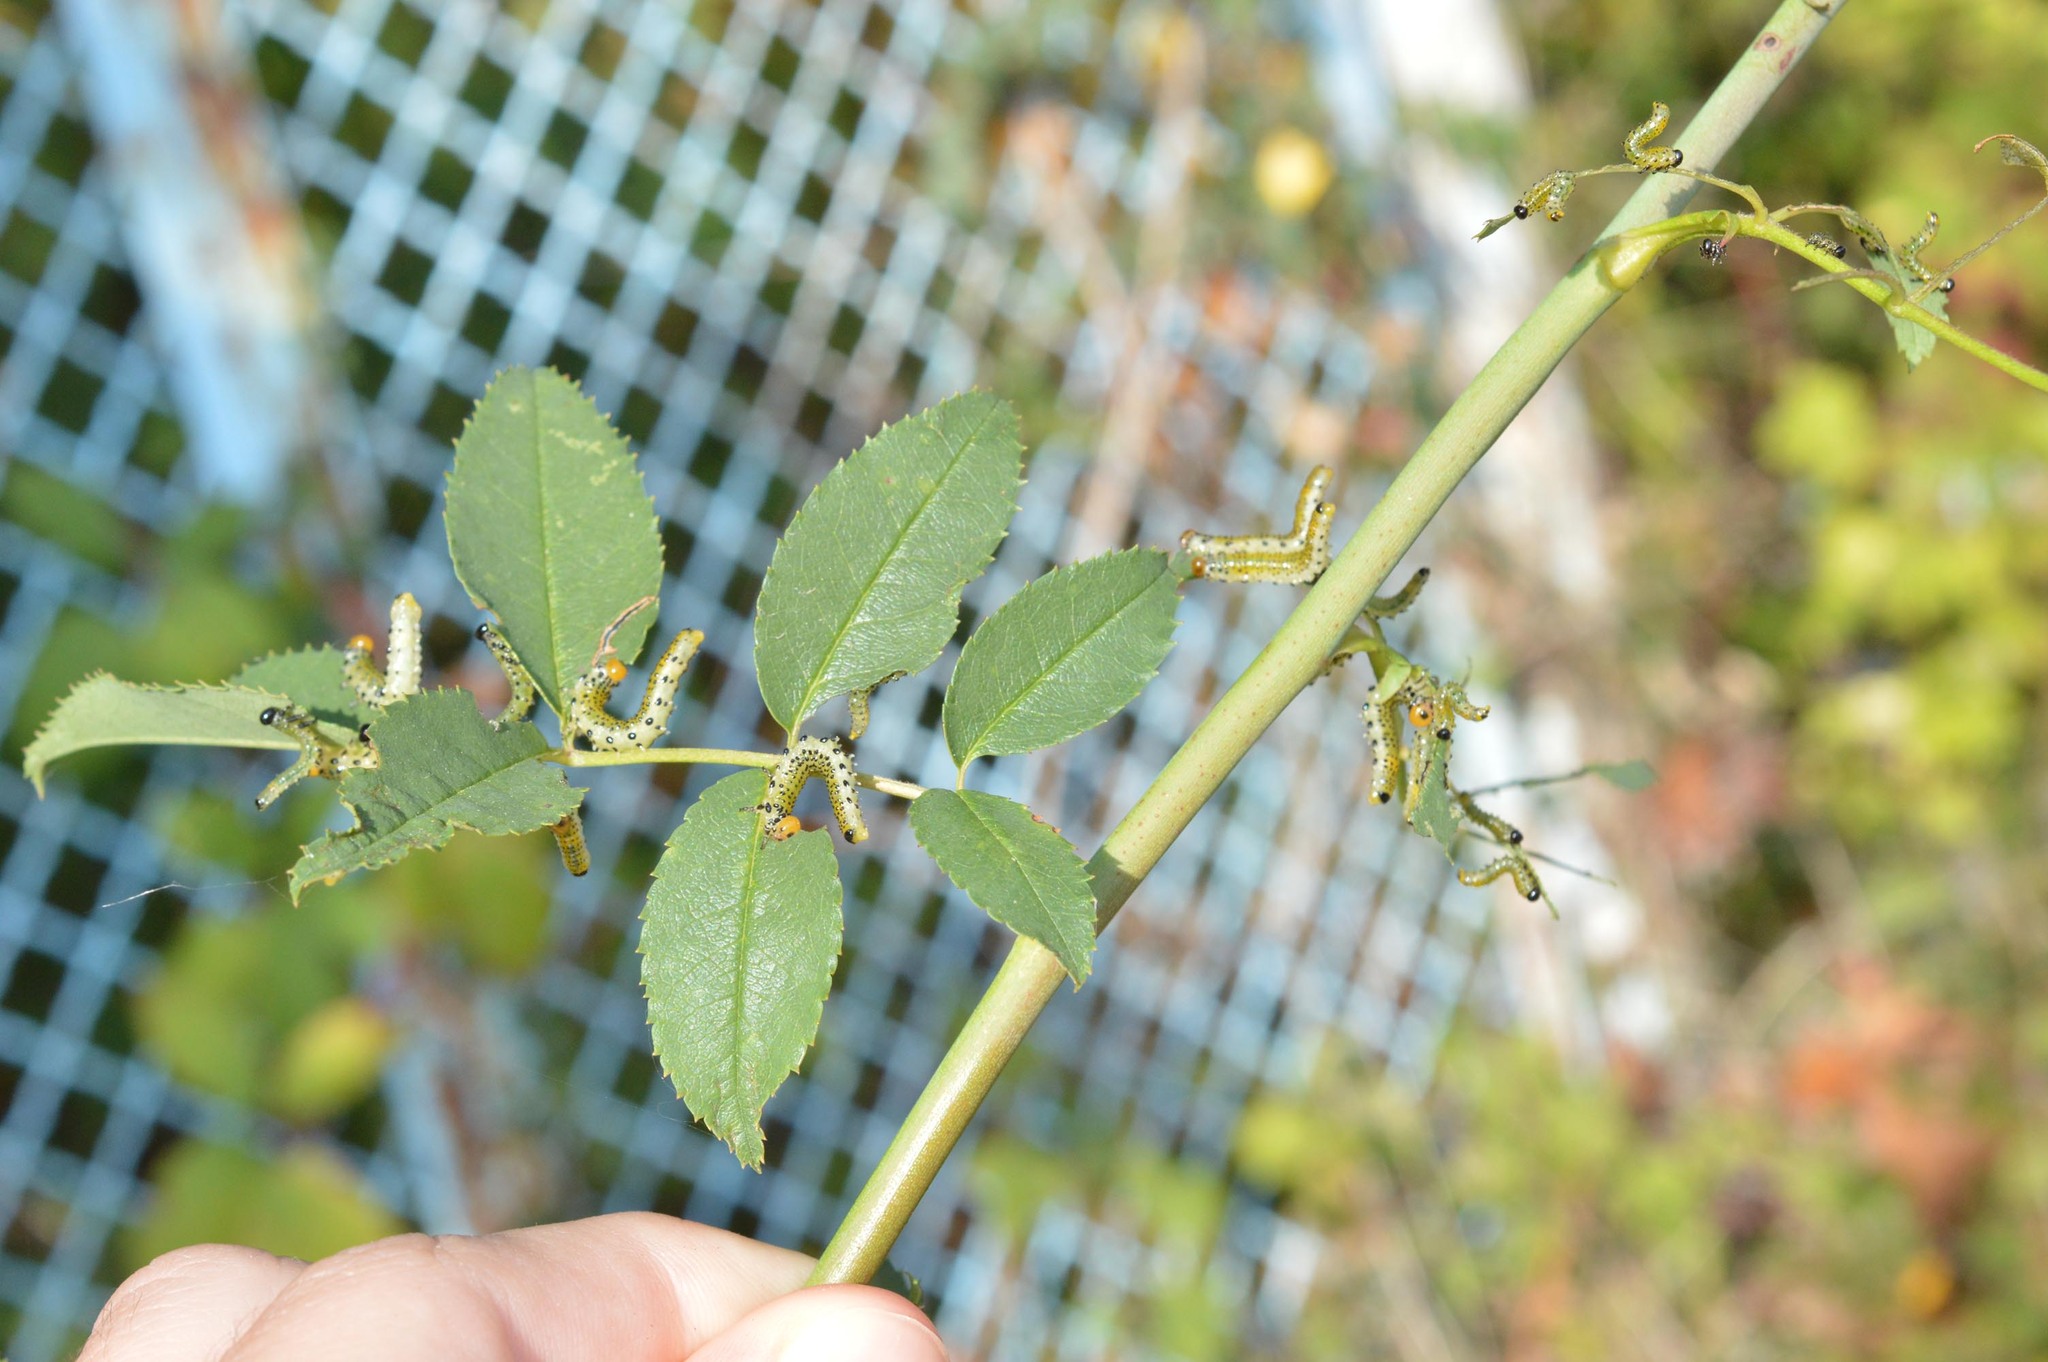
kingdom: Animalia
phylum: Arthropoda
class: Insecta
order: Hymenoptera
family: Argidae
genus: Arge
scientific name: Arge pagana
